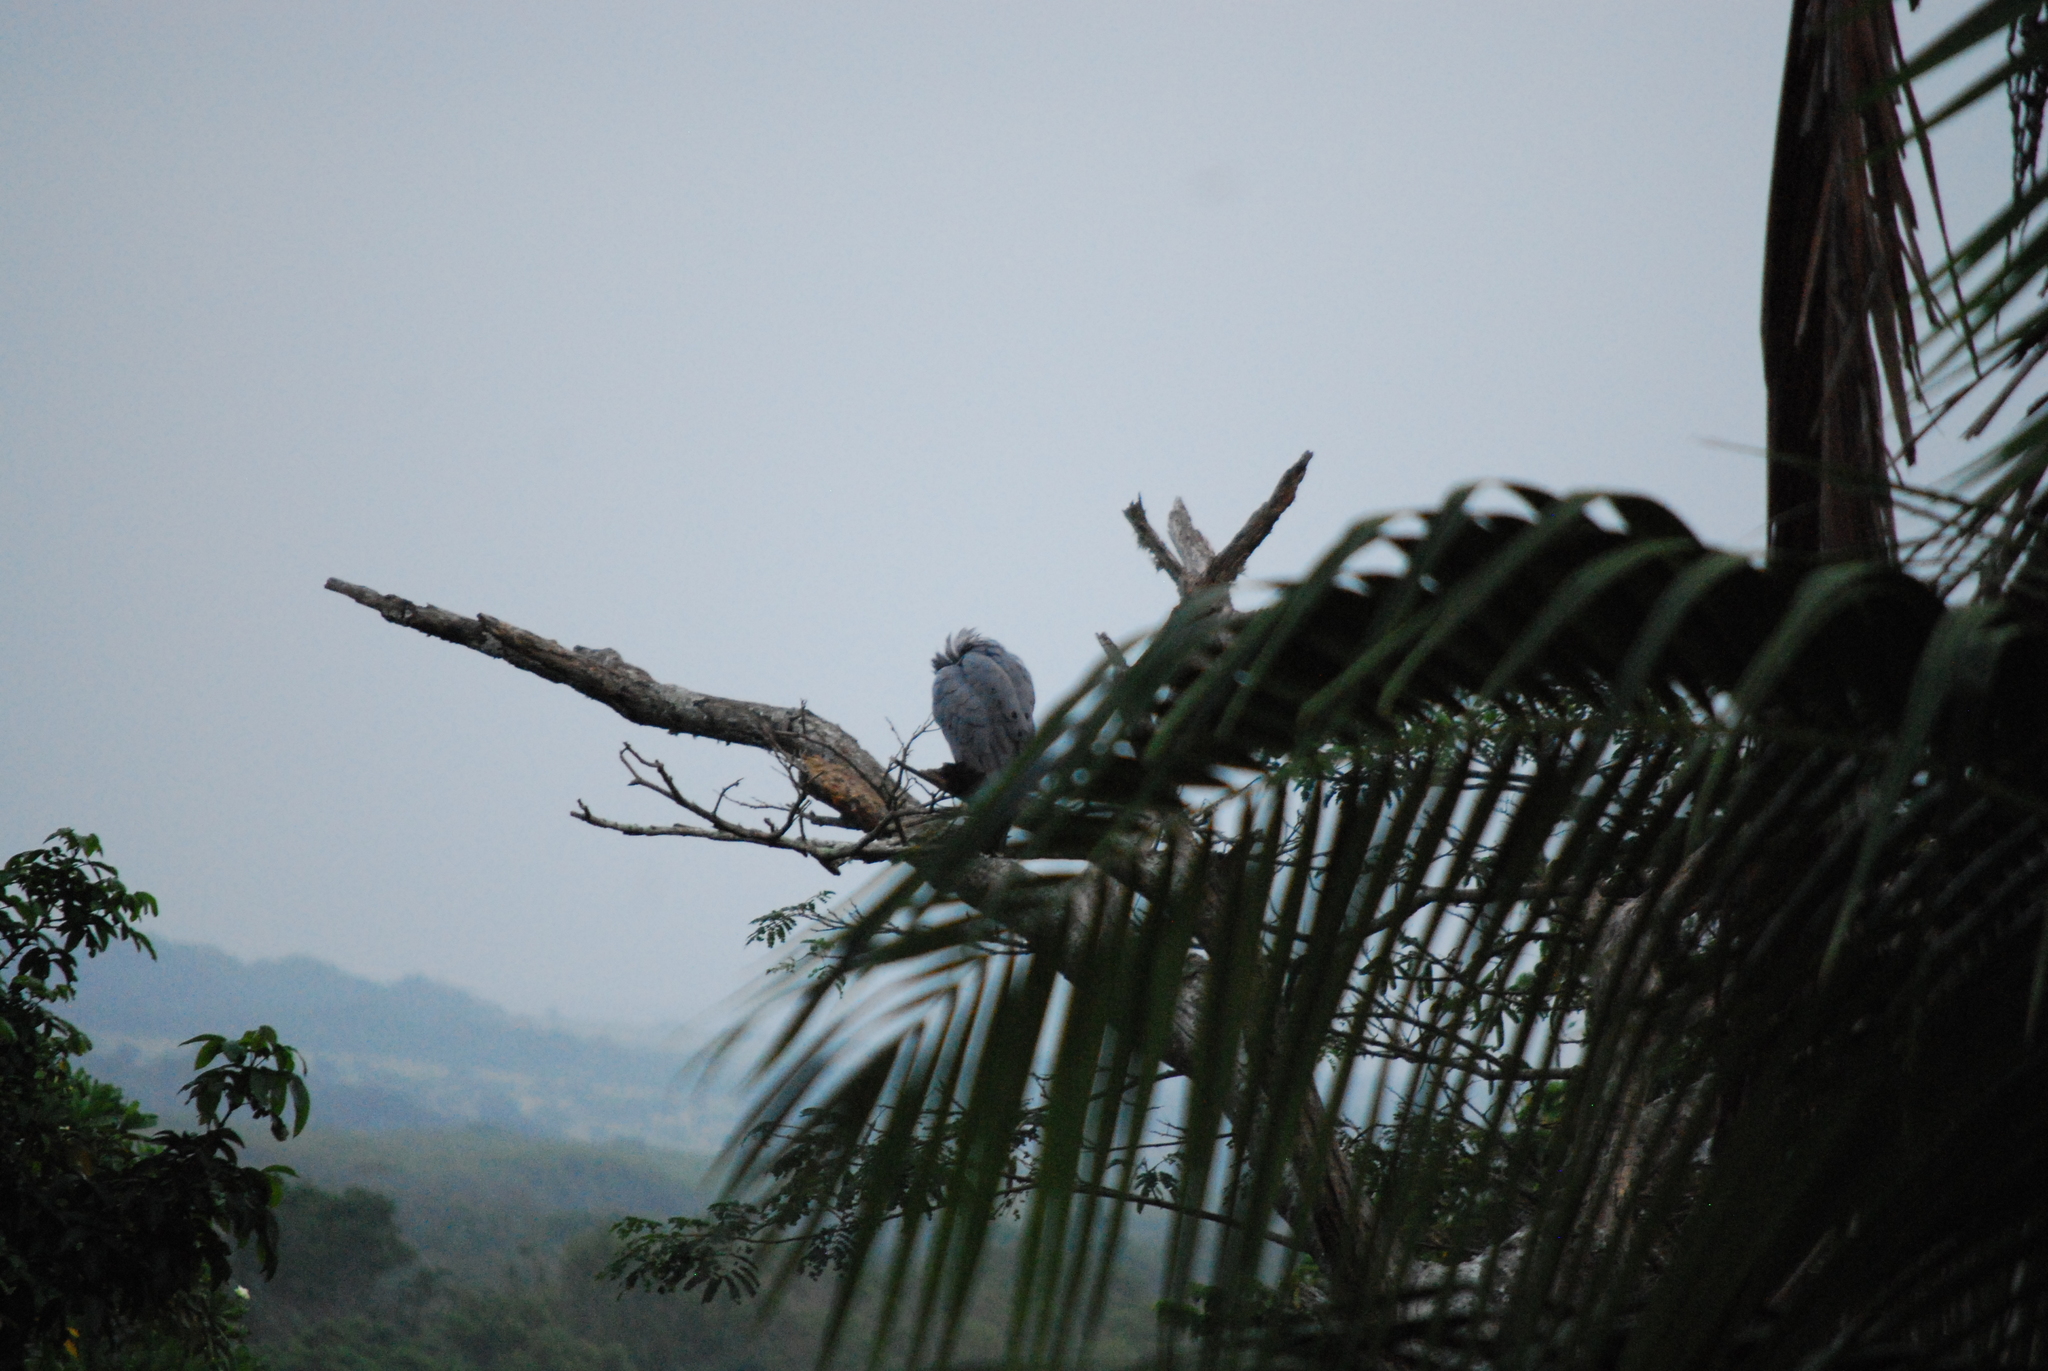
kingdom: Animalia
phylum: Chordata
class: Aves
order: Accipitriformes
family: Accipitridae
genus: Polyboroides
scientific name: Polyboroides typus
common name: African harrier-hawk
